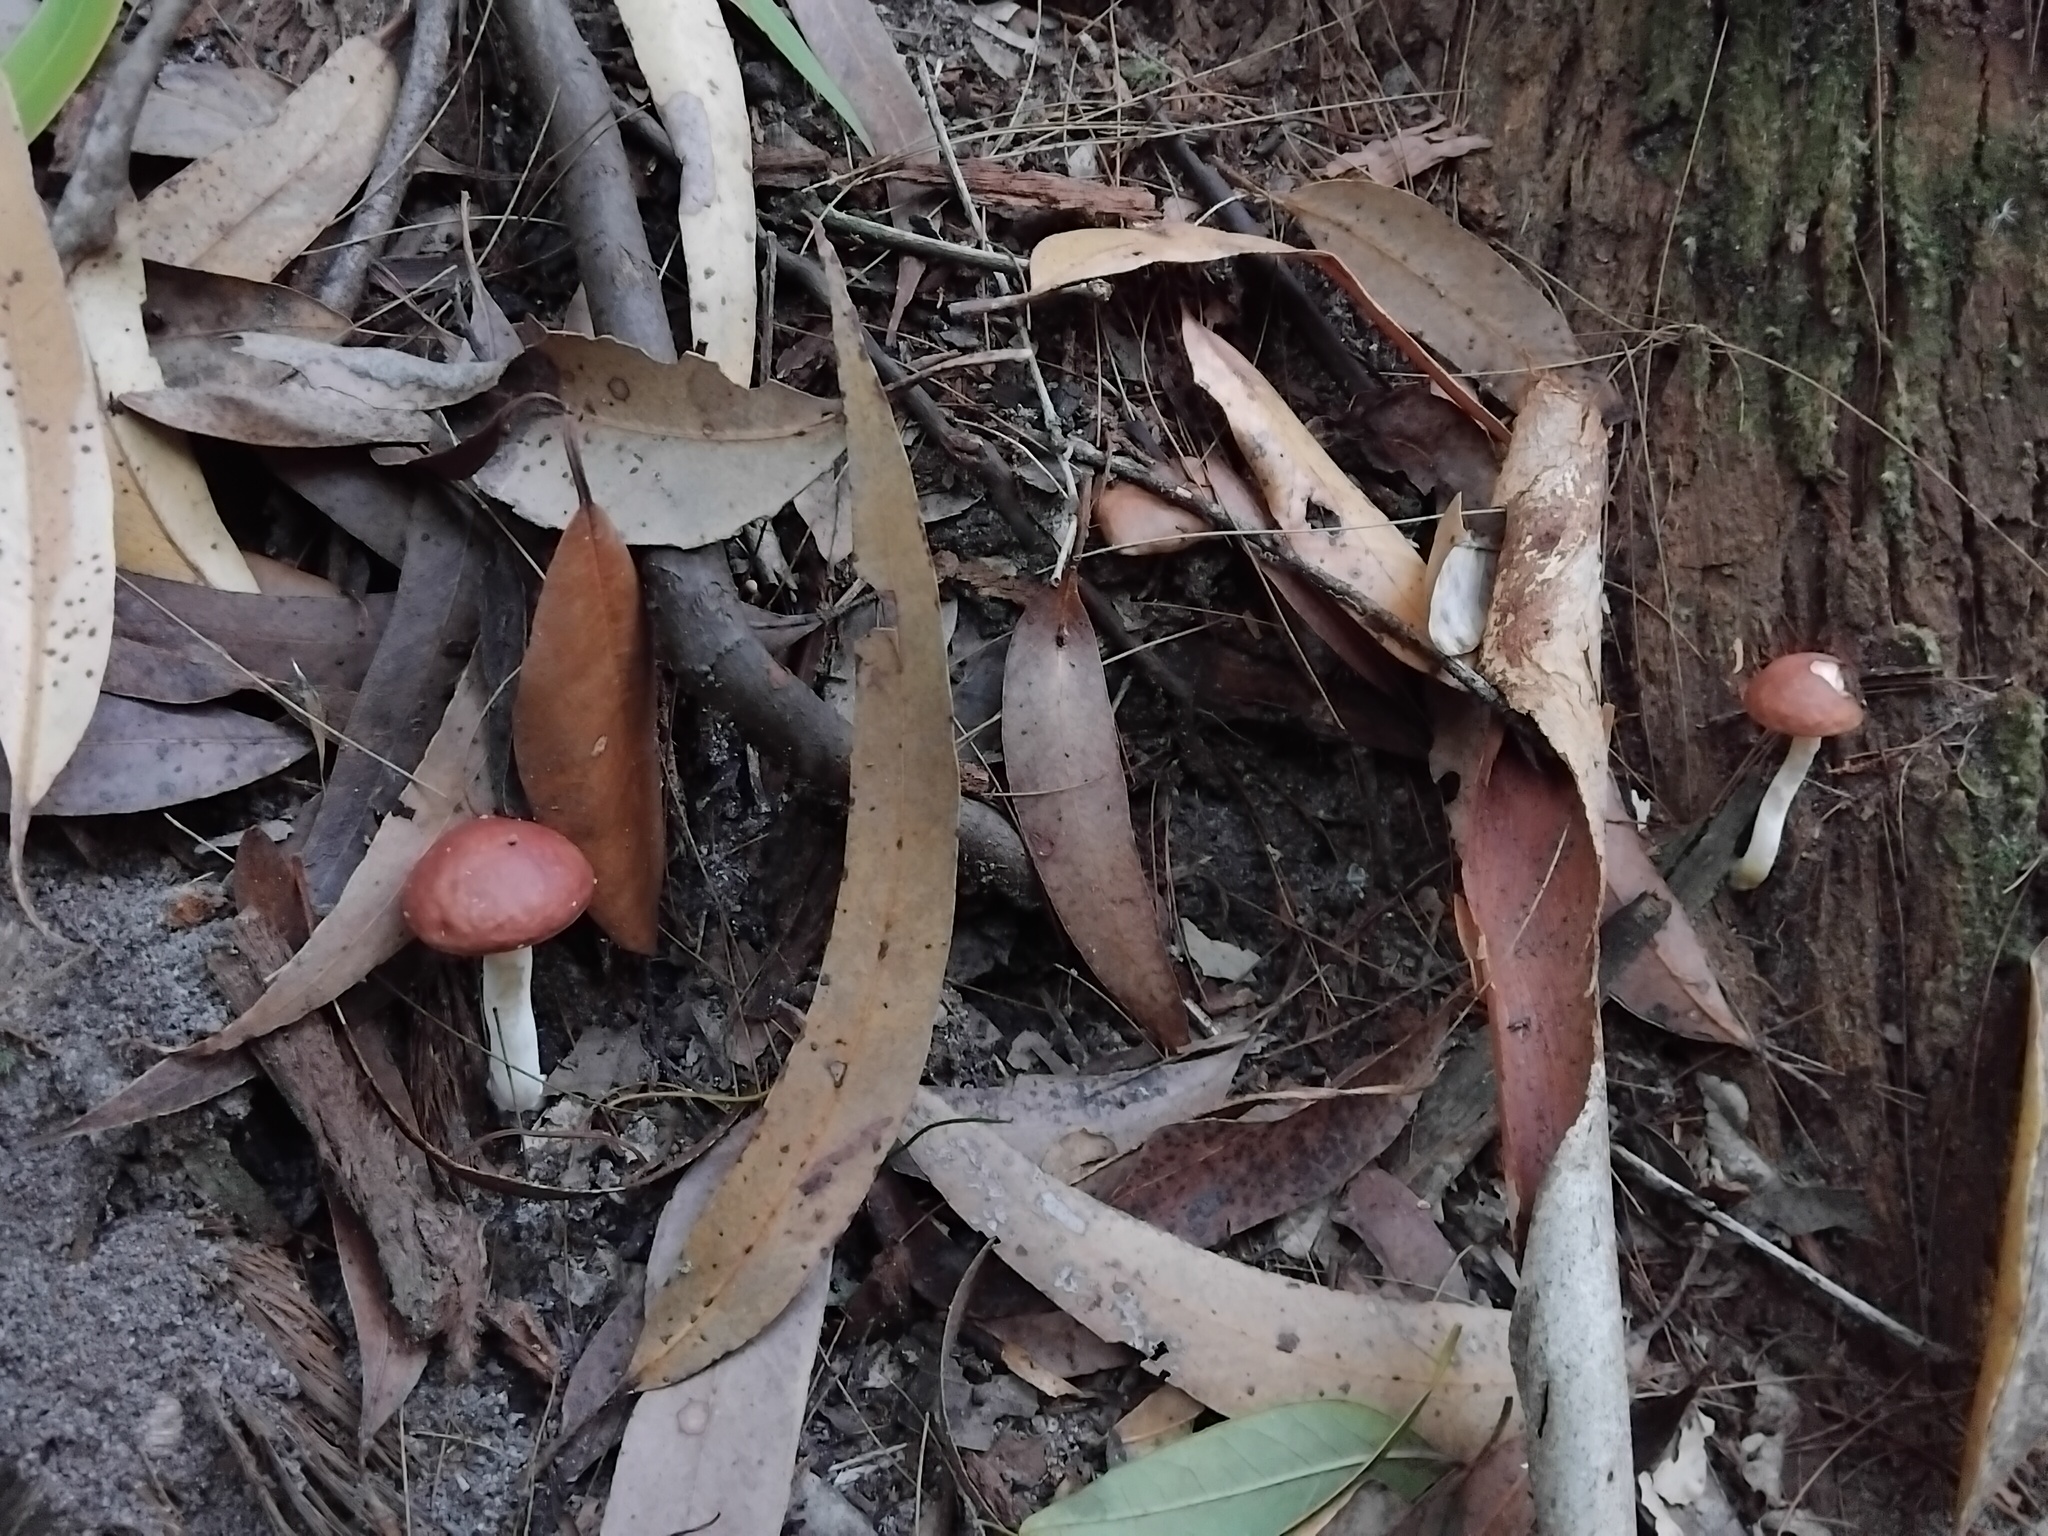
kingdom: Fungi
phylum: Basidiomycota
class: Agaricomycetes
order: Boletales
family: Boletaceae
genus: Fistulinella
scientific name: Fistulinella prunicolor
